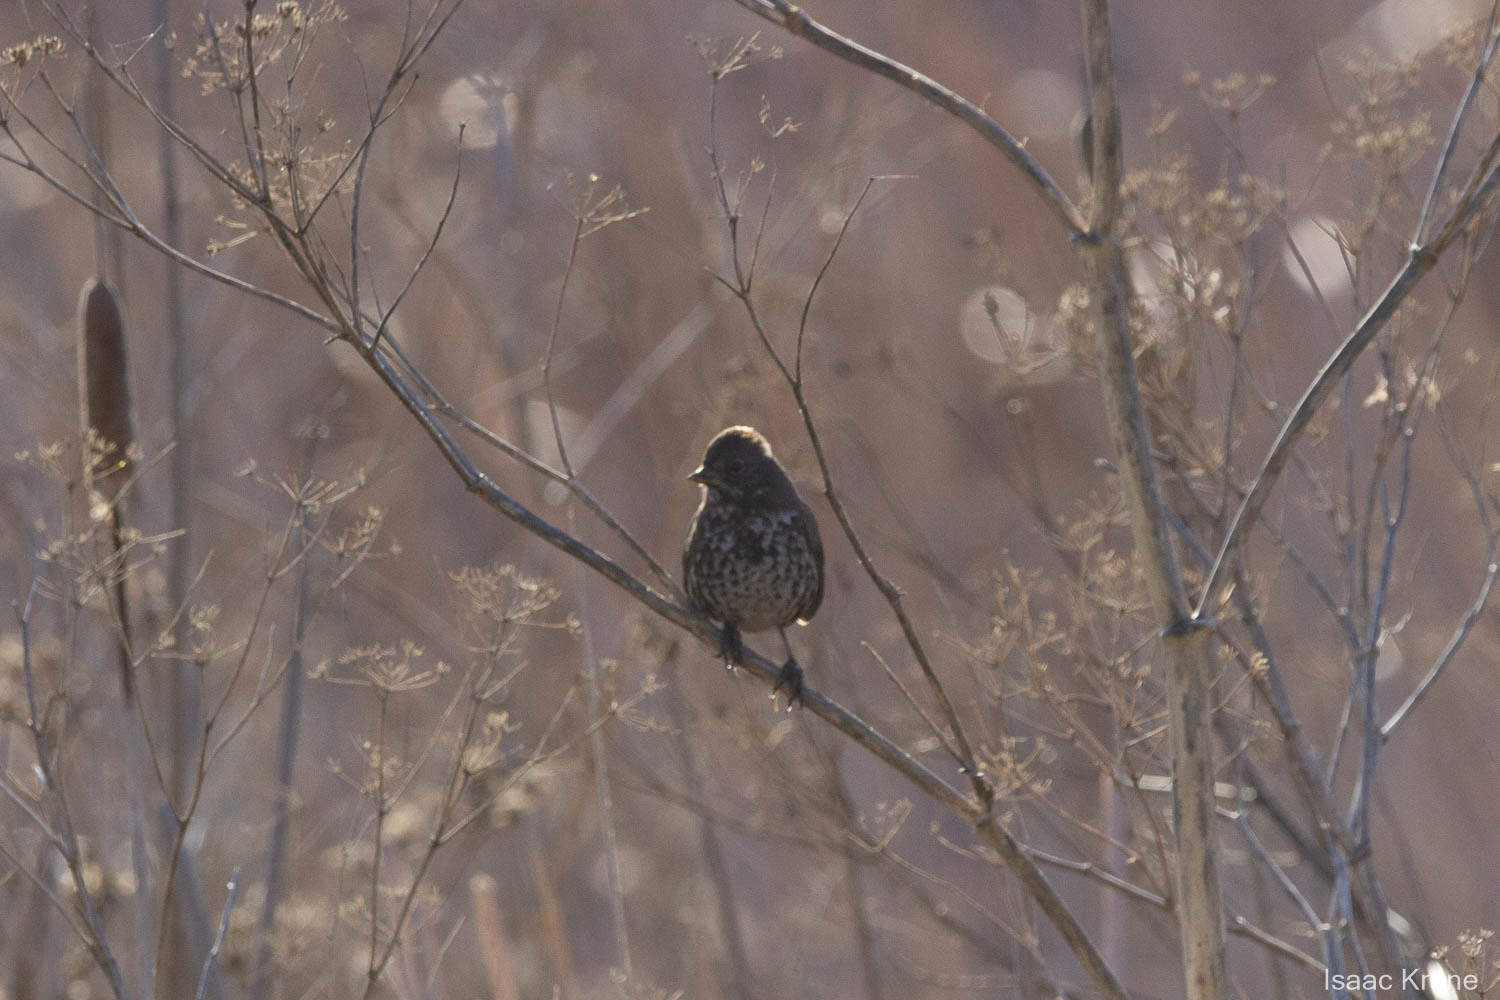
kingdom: Animalia
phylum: Chordata
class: Aves
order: Passeriformes
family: Passerellidae
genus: Passerella
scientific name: Passerella iliaca
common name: Fox sparrow
